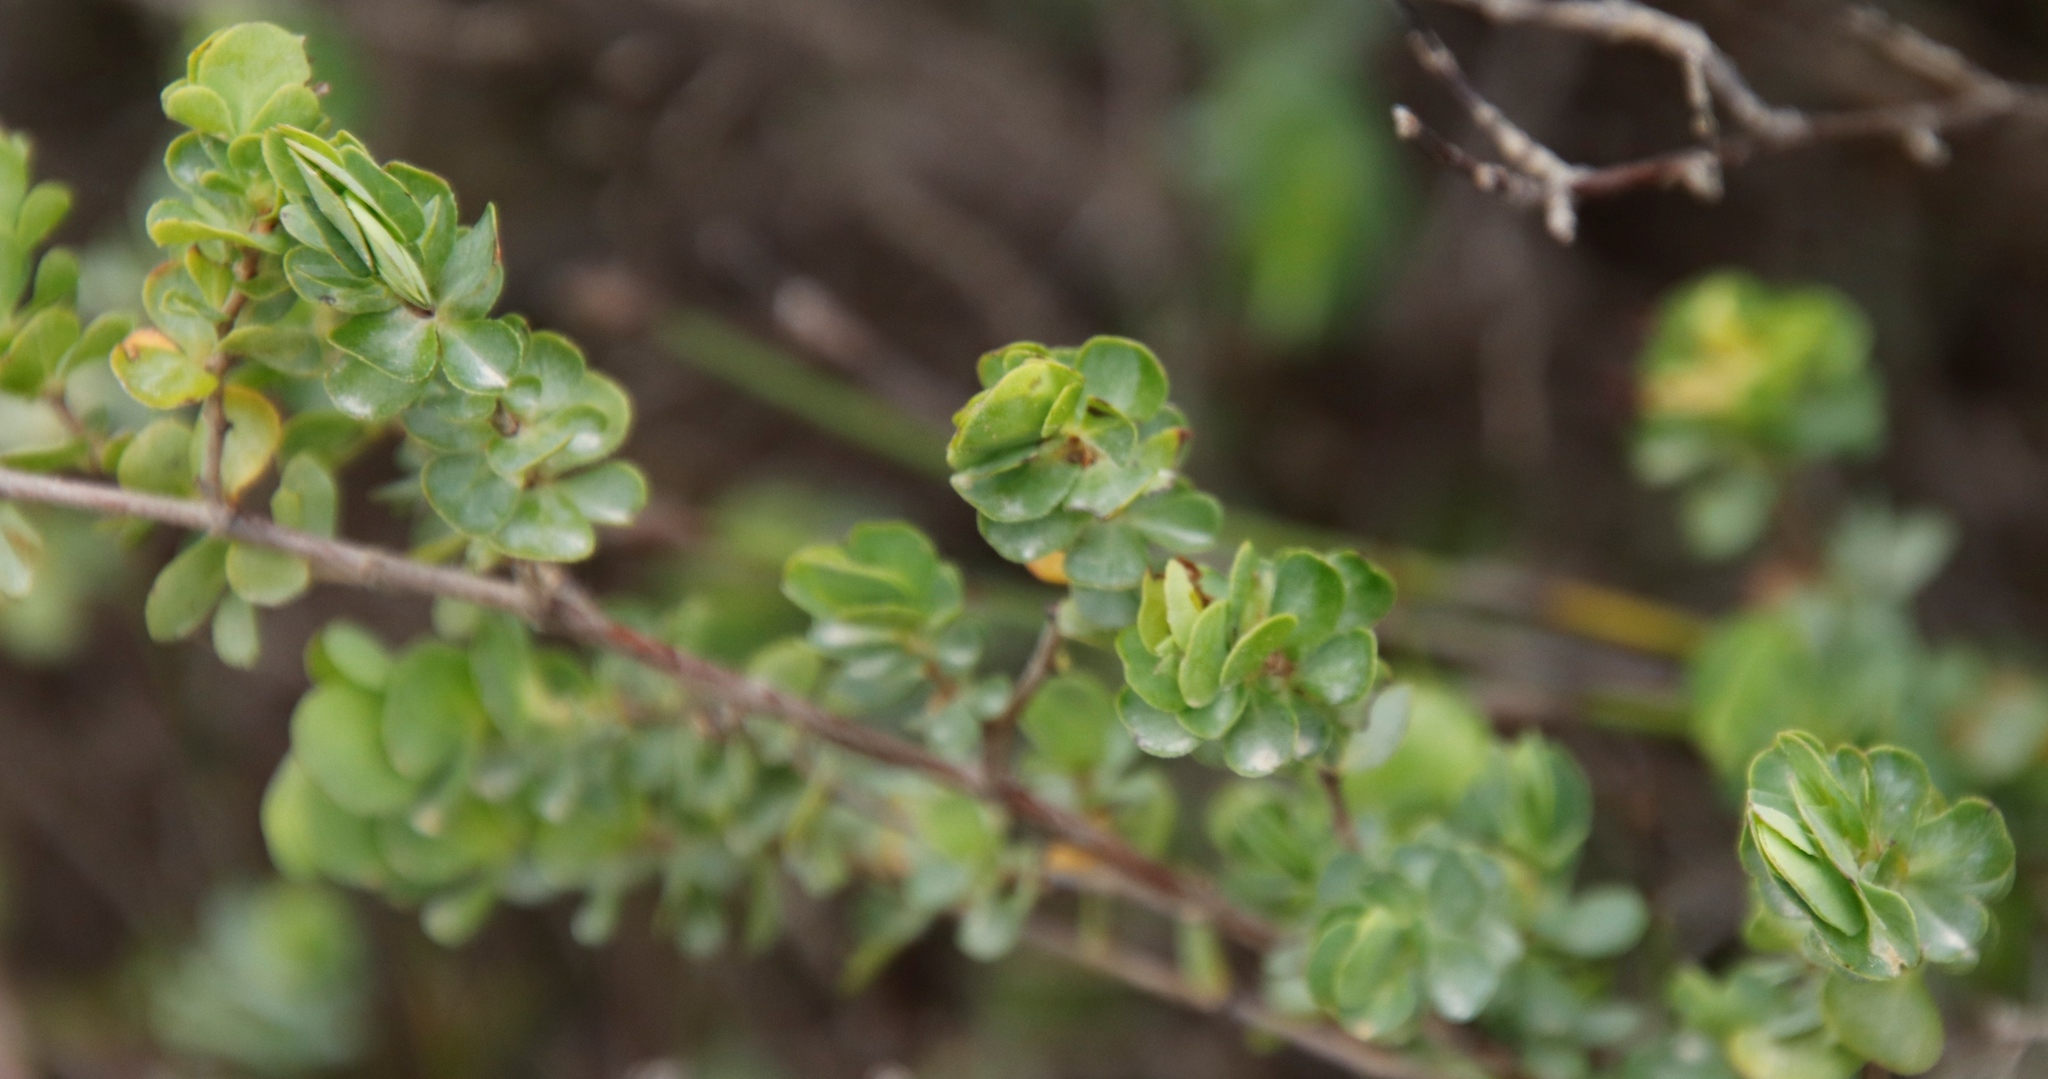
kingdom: Plantae
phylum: Tracheophyta
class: Magnoliopsida
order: Rosales
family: Rosaceae
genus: Cliffortia
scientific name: Cliffortia obcordata
